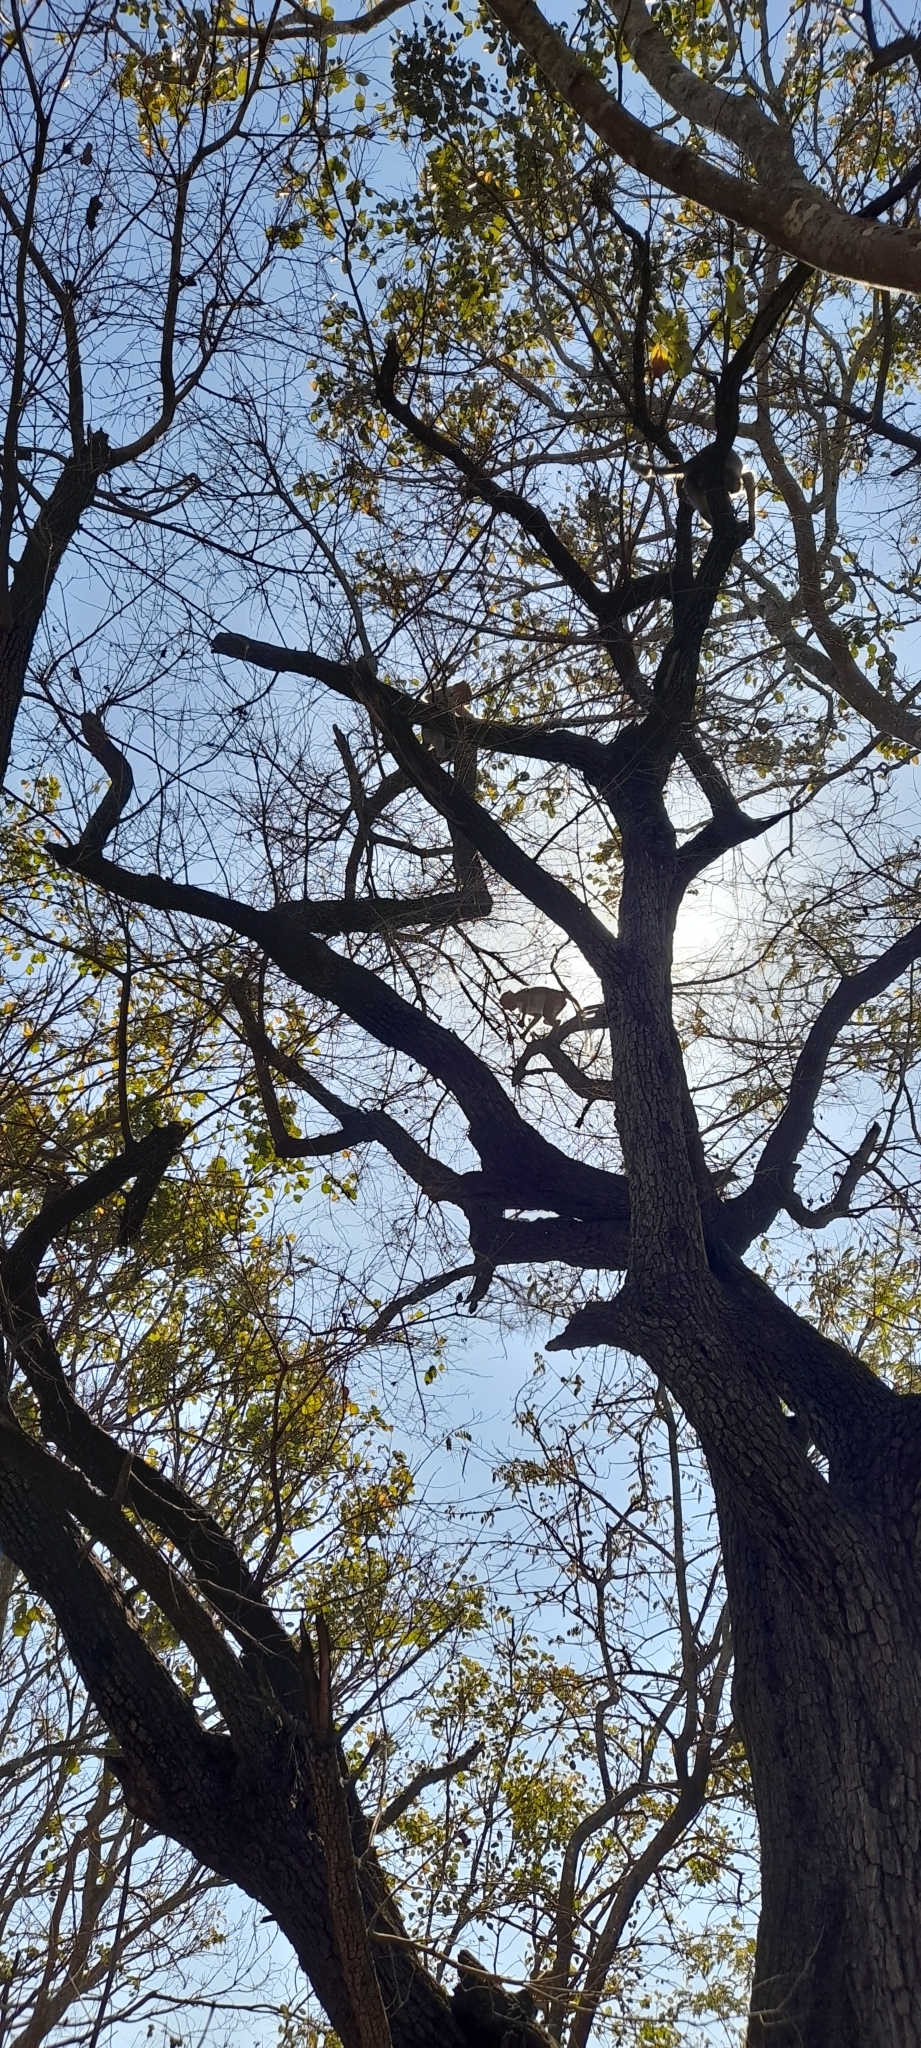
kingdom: Animalia
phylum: Chordata
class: Mammalia
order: Primates
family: Cercopithecidae
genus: Macaca
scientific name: Macaca radiata
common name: Bonnet macaque
